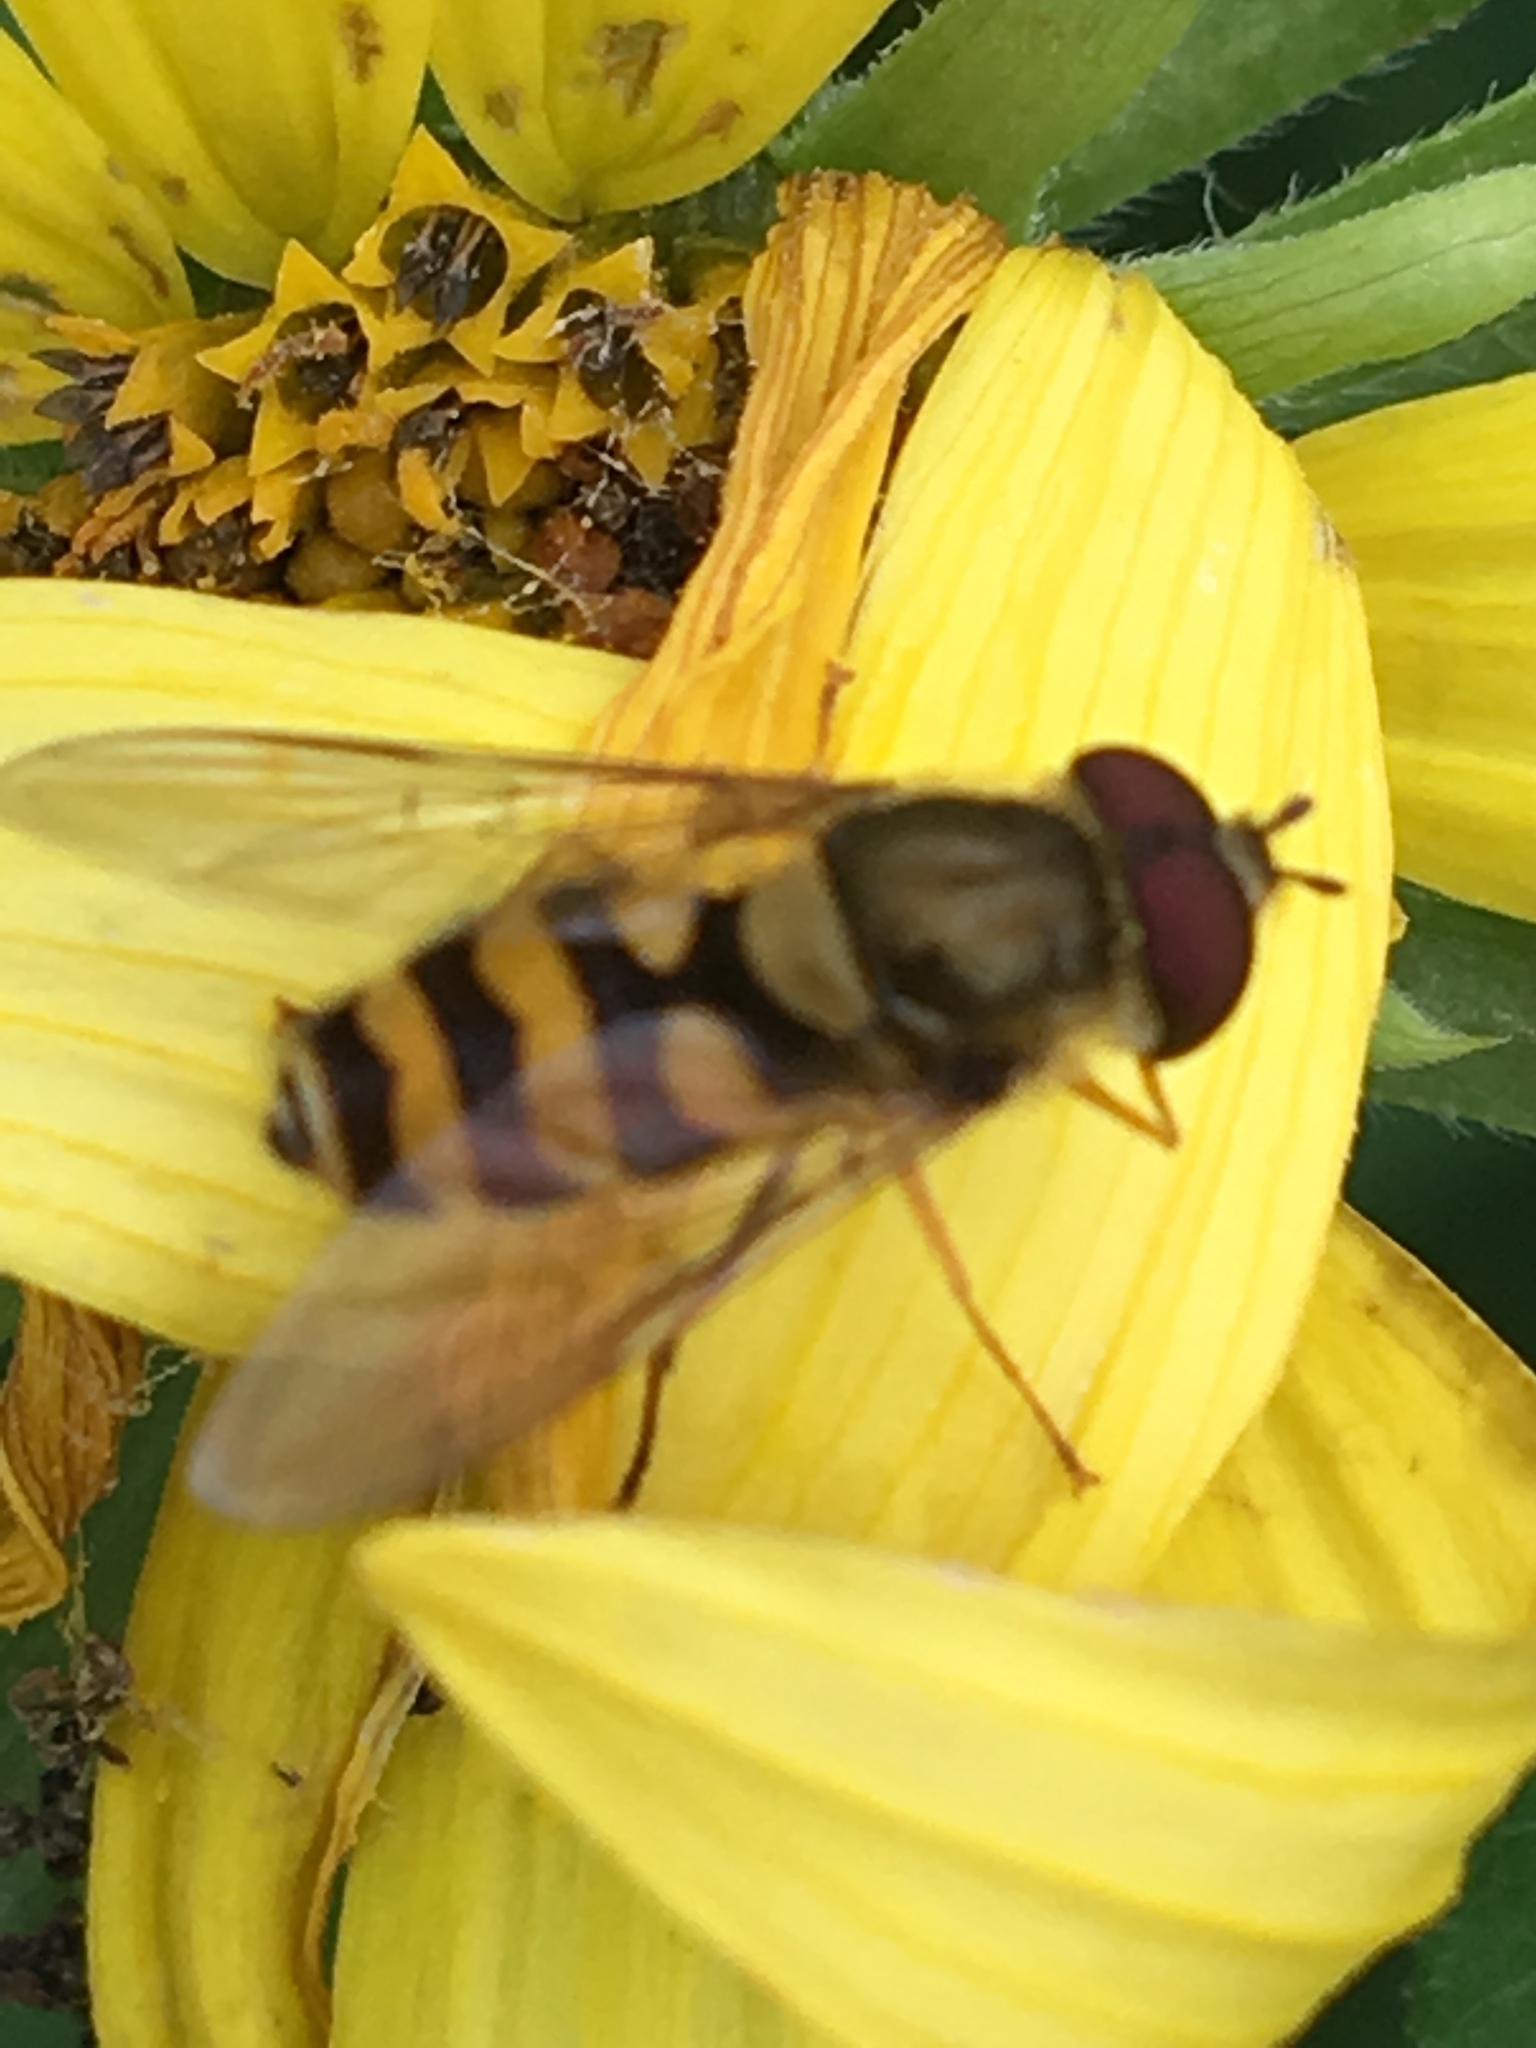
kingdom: Animalia
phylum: Arthropoda
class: Insecta
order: Diptera
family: Syrphidae
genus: Syrphus
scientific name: Syrphus
